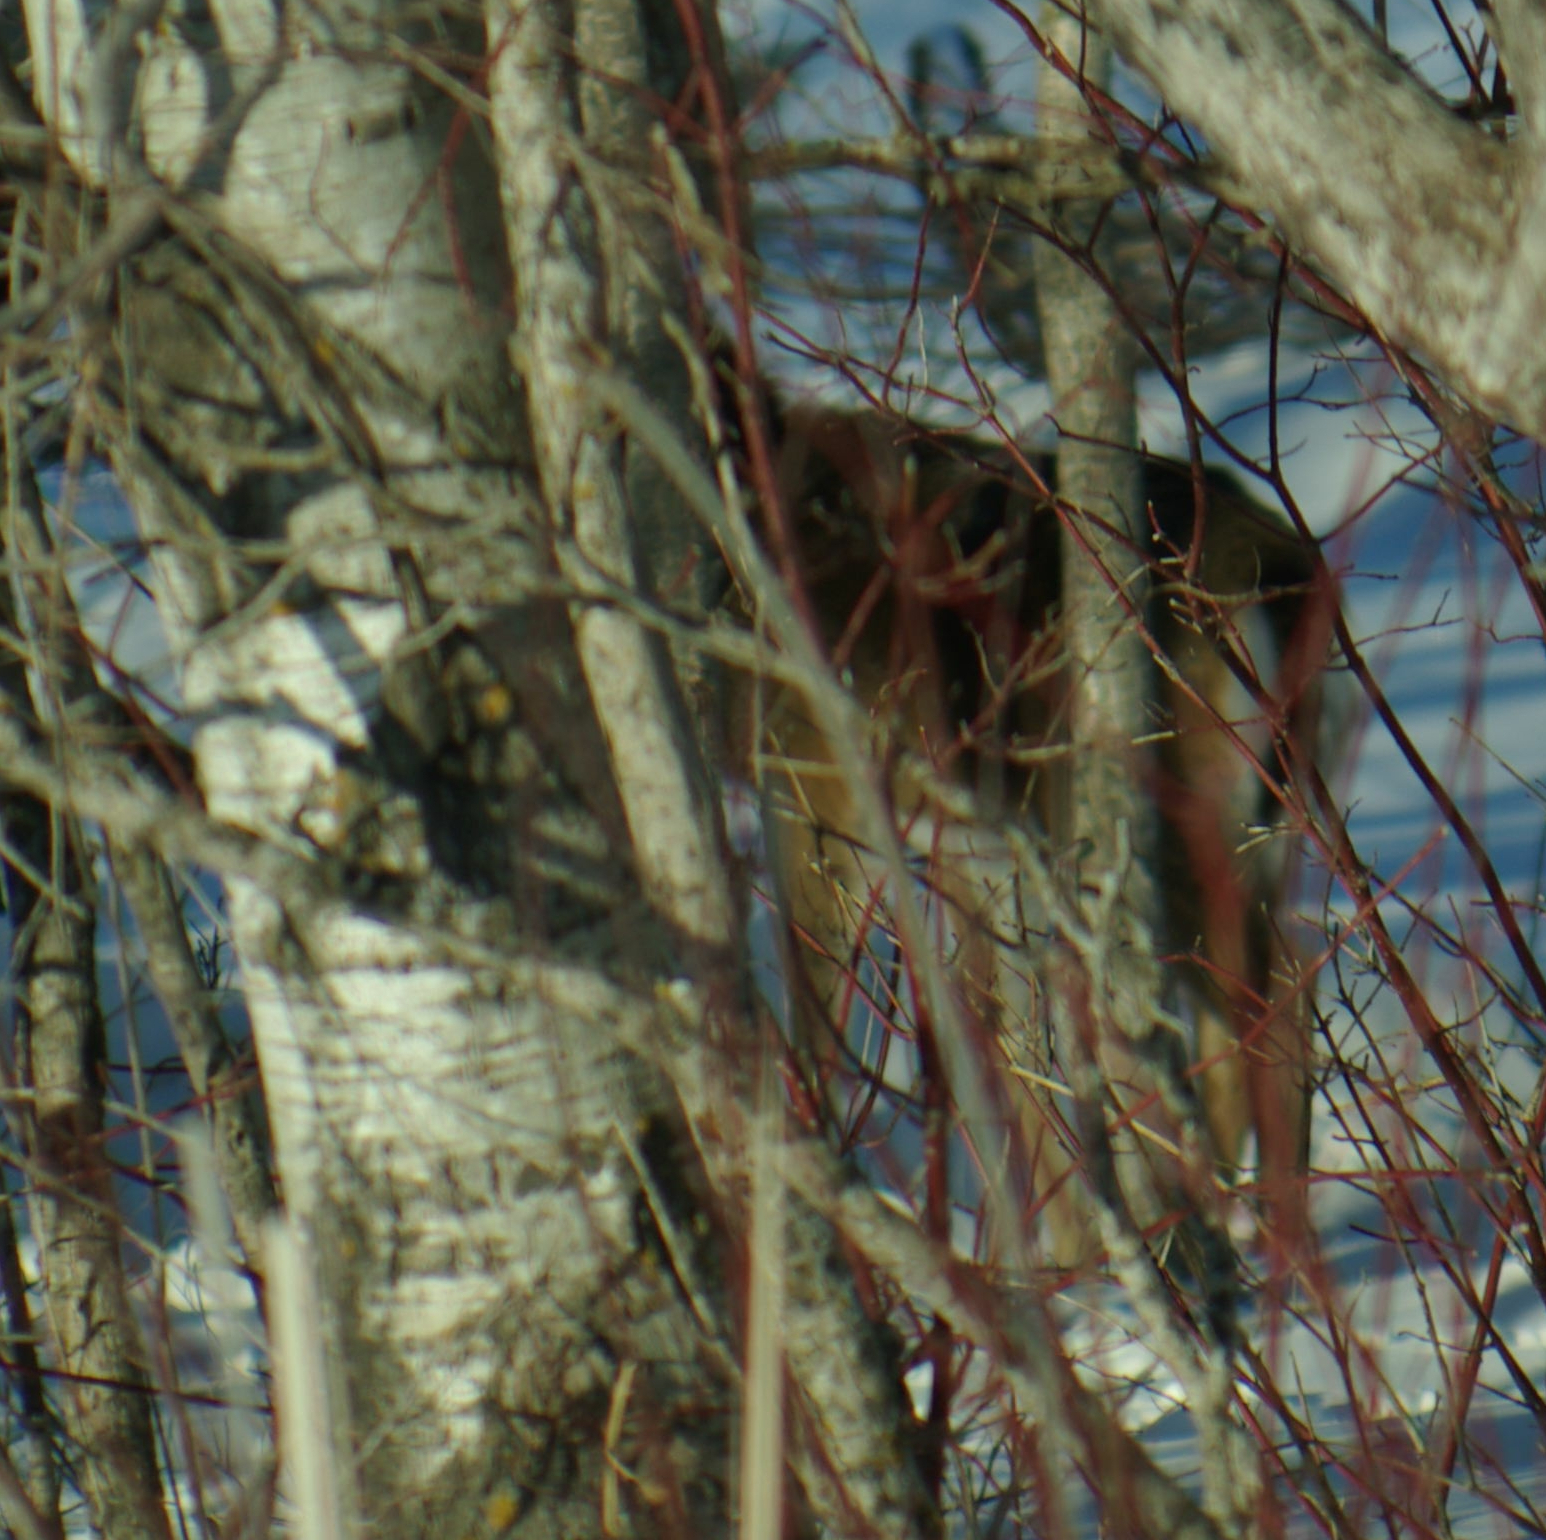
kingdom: Animalia
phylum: Chordata
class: Mammalia
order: Artiodactyla
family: Cervidae
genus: Odocoileus
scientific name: Odocoileus virginianus
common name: White-tailed deer
